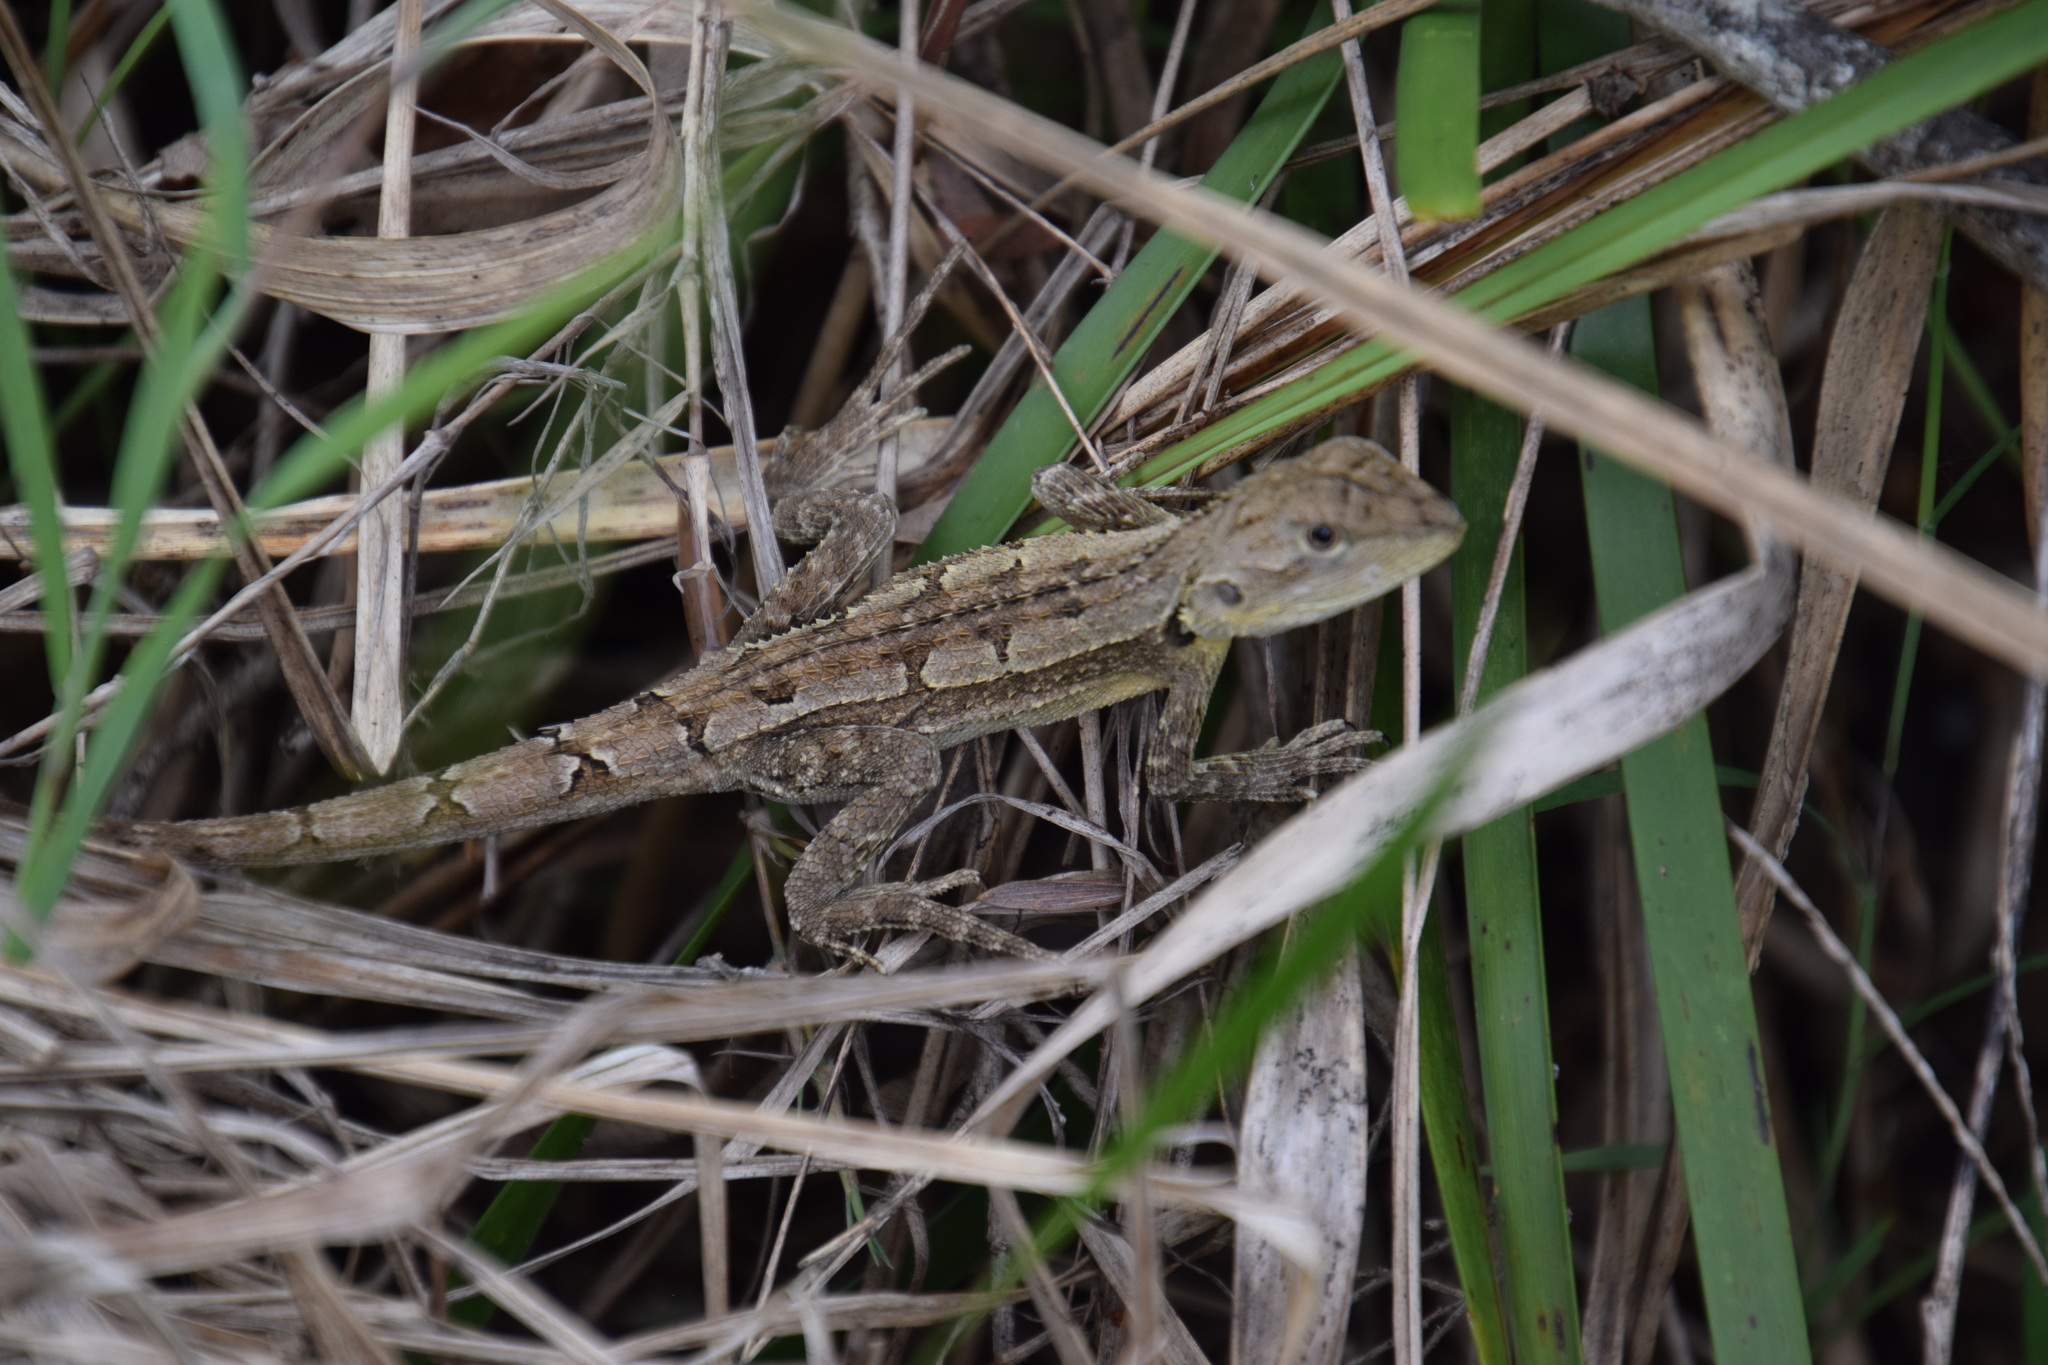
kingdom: Animalia
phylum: Chordata
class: Squamata
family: Agamidae
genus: Amphibolurus
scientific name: Amphibolurus muricatus
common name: Jacky lizard
